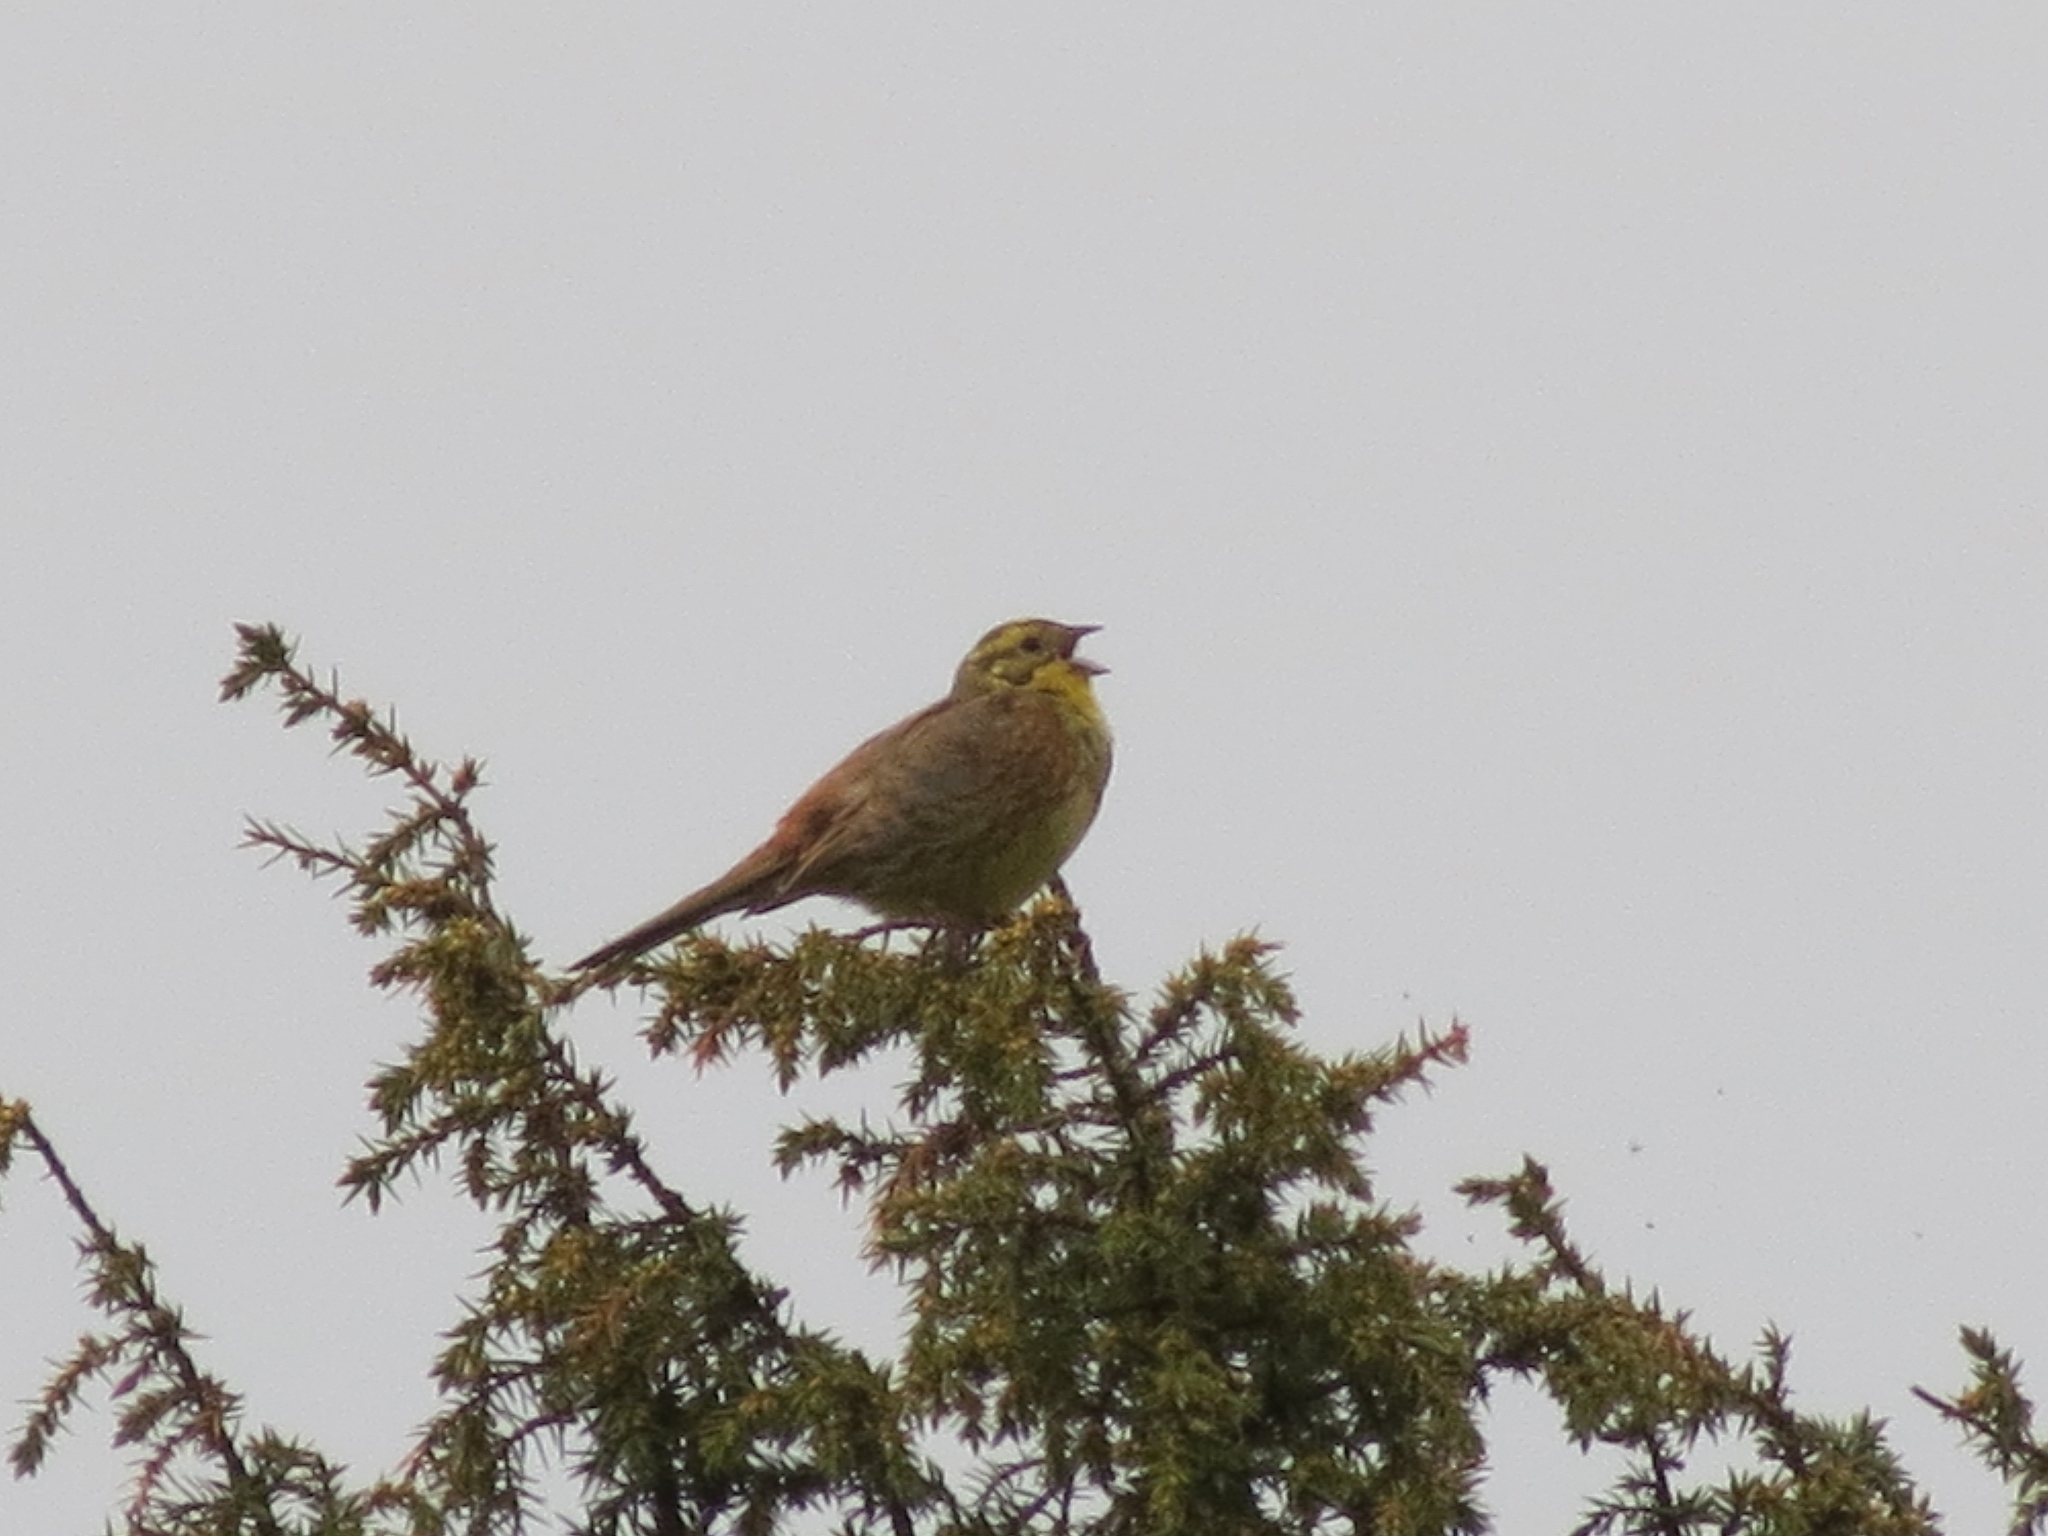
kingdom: Animalia
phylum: Chordata
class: Aves
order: Passeriformes
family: Emberizidae
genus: Emberiza
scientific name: Emberiza citrinella
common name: Yellowhammer
